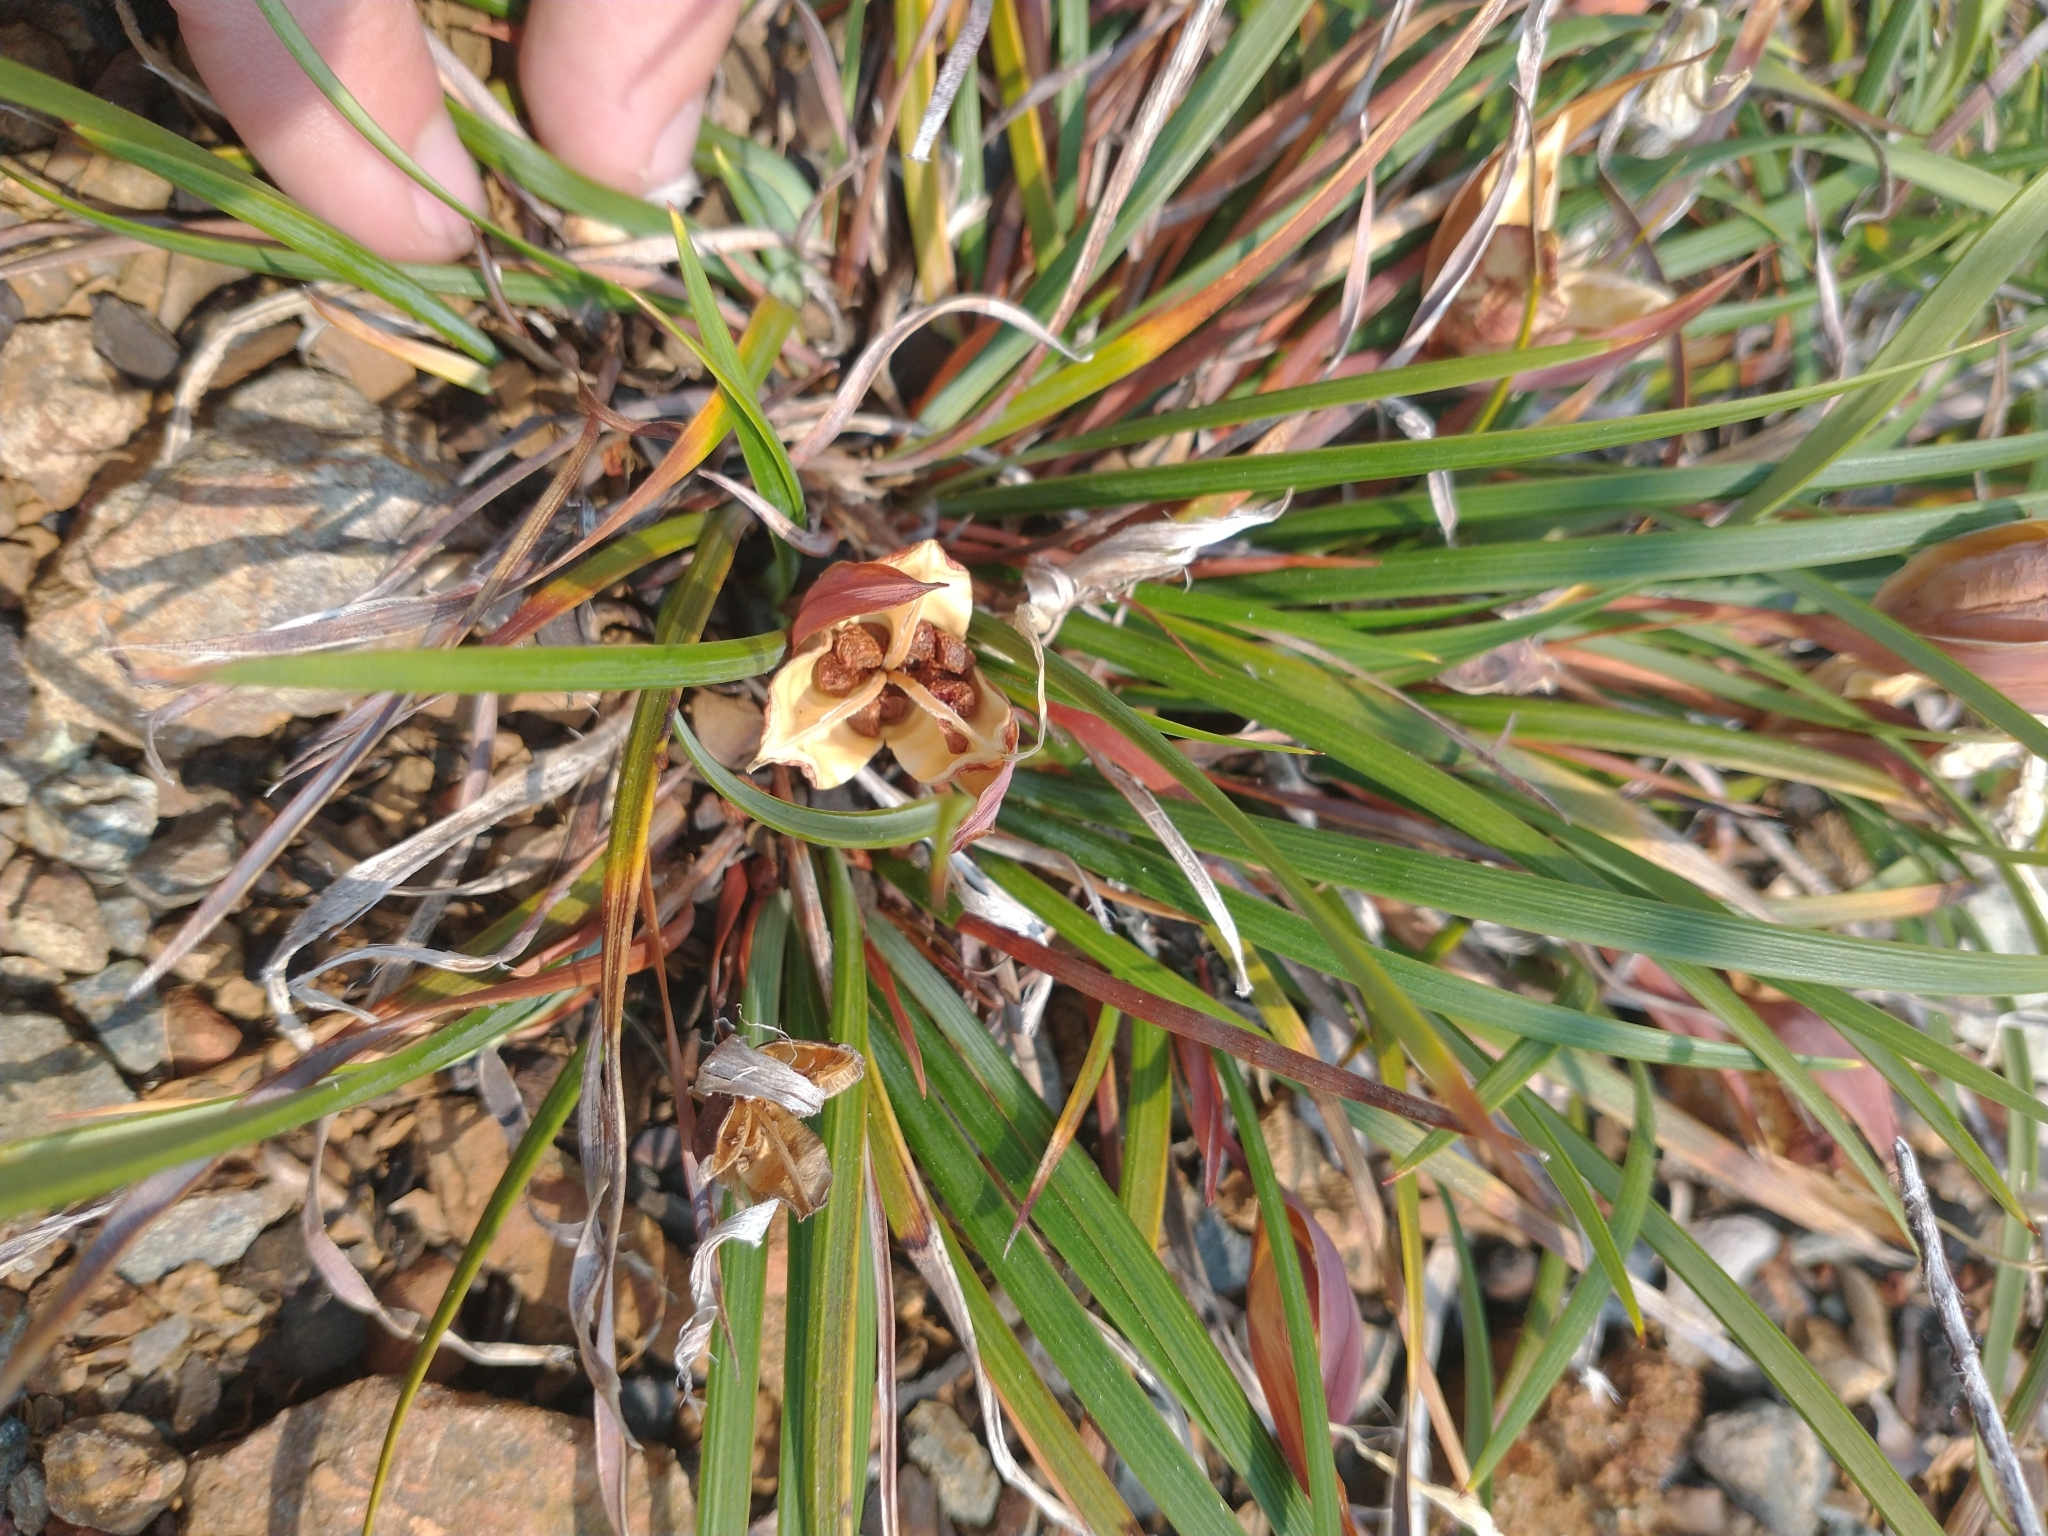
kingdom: Plantae
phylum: Tracheophyta
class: Liliopsida
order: Asparagales
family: Iridaceae
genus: Iris
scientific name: Iris innominata
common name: Del norte county iris
